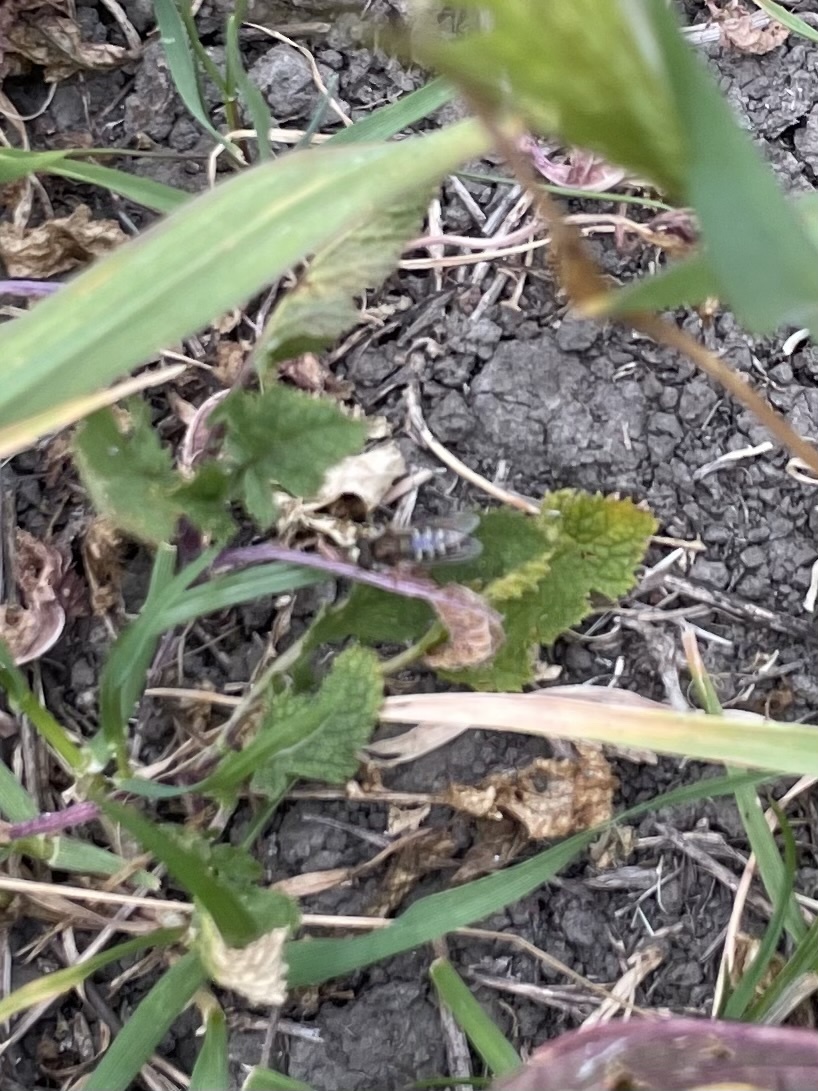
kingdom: Animalia
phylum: Arthropoda
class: Insecta
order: Diptera
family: Syrphidae
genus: Eupeodes
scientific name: Eupeodes volucris
